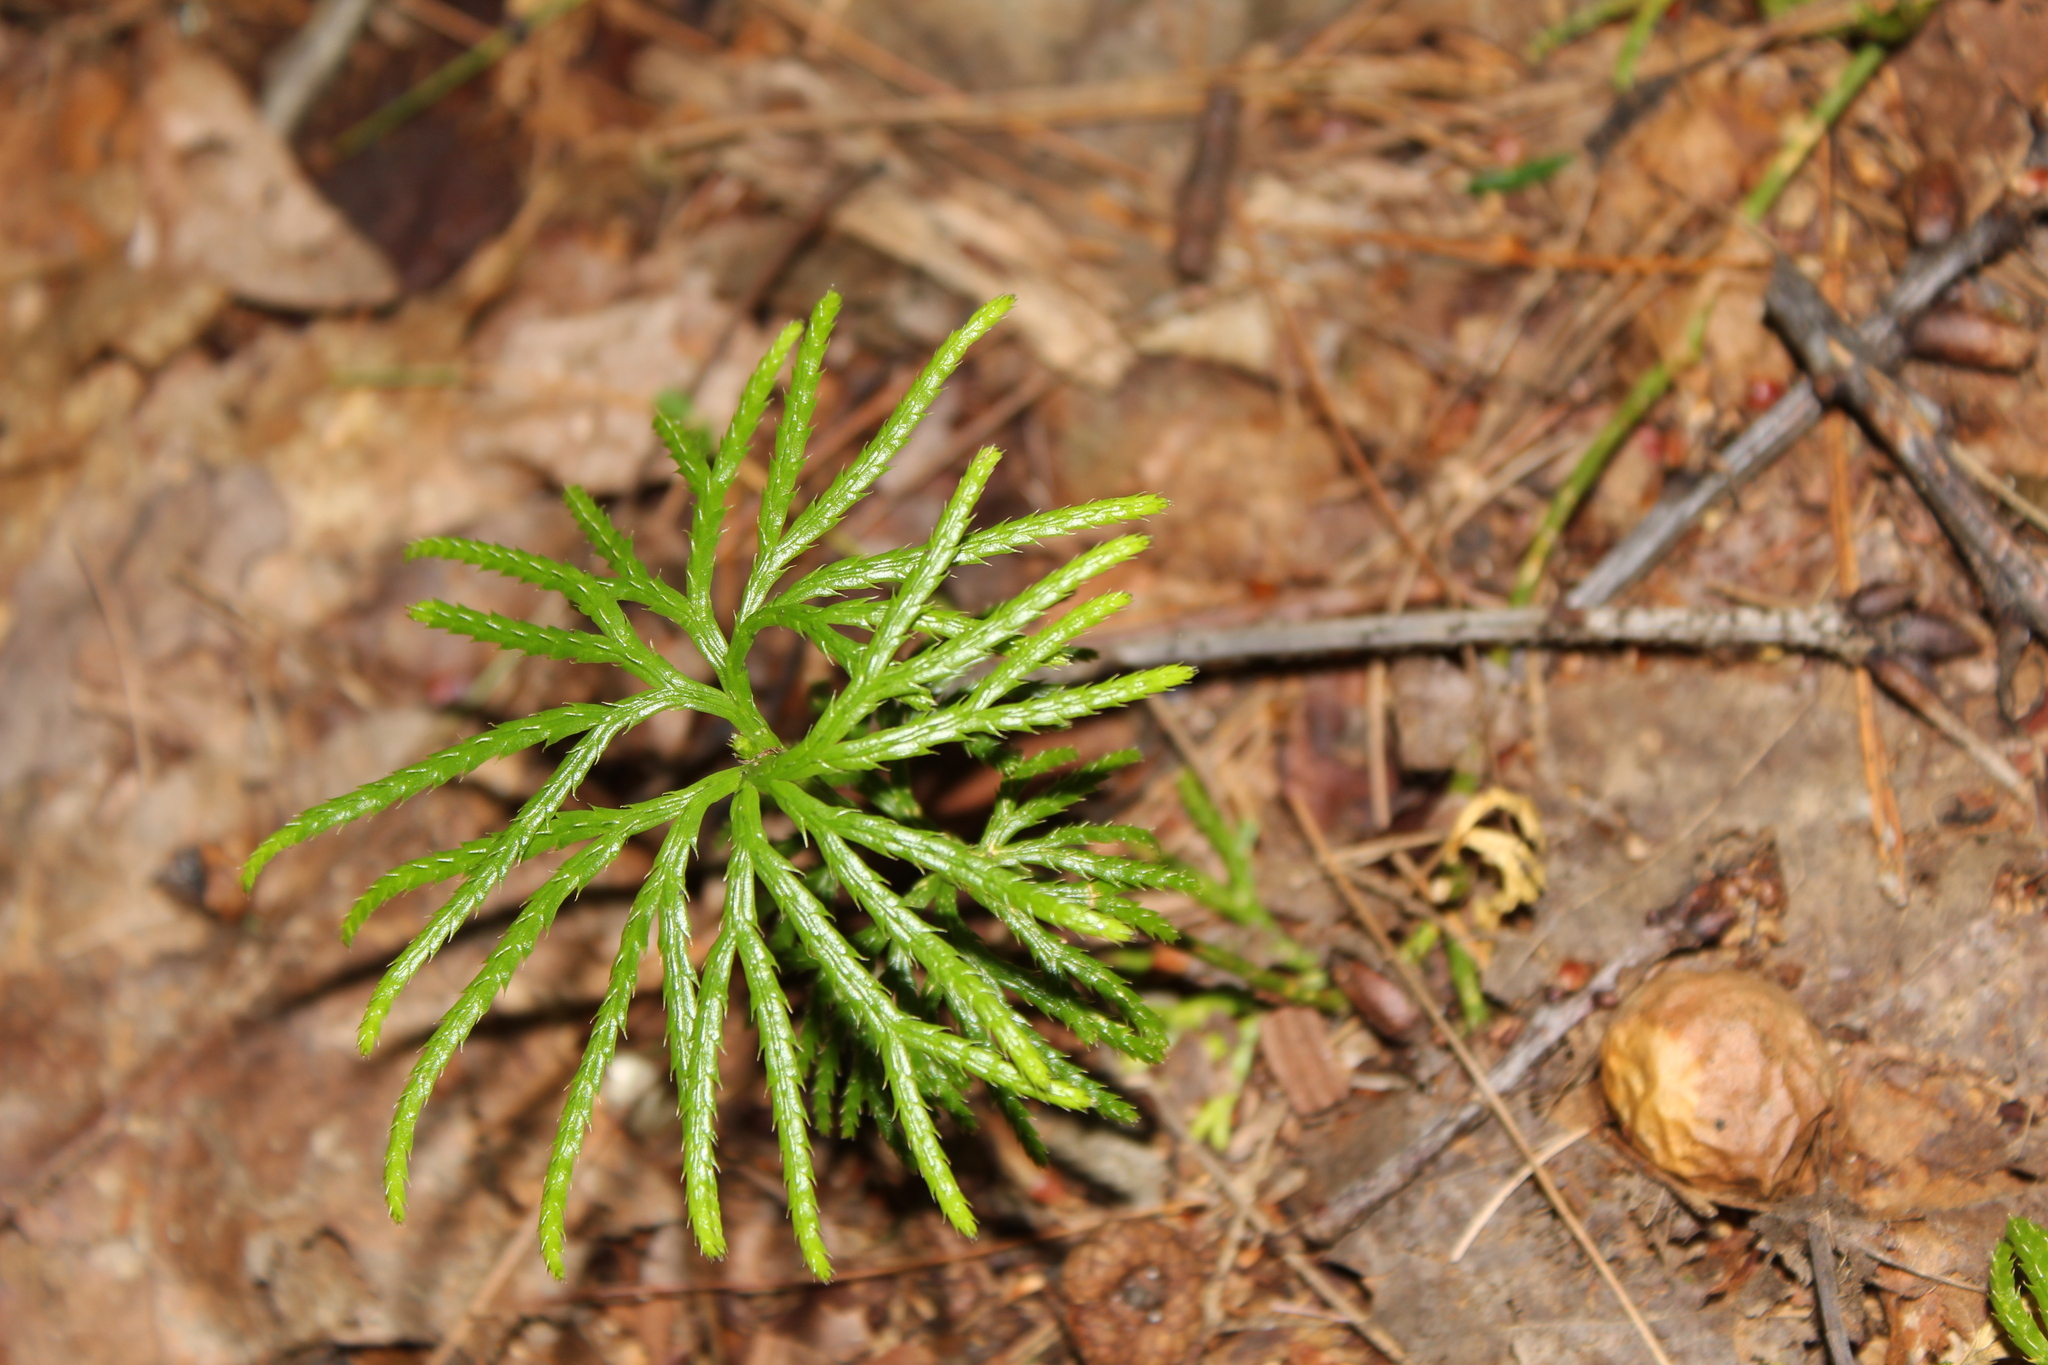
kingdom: Plantae
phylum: Tracheophyta
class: Lycopodiopsida
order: Lycopodiales
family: Lycopodiaceae
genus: Diphasiastrum
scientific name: Diphasiastrum digitatum
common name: Southern running-pine
